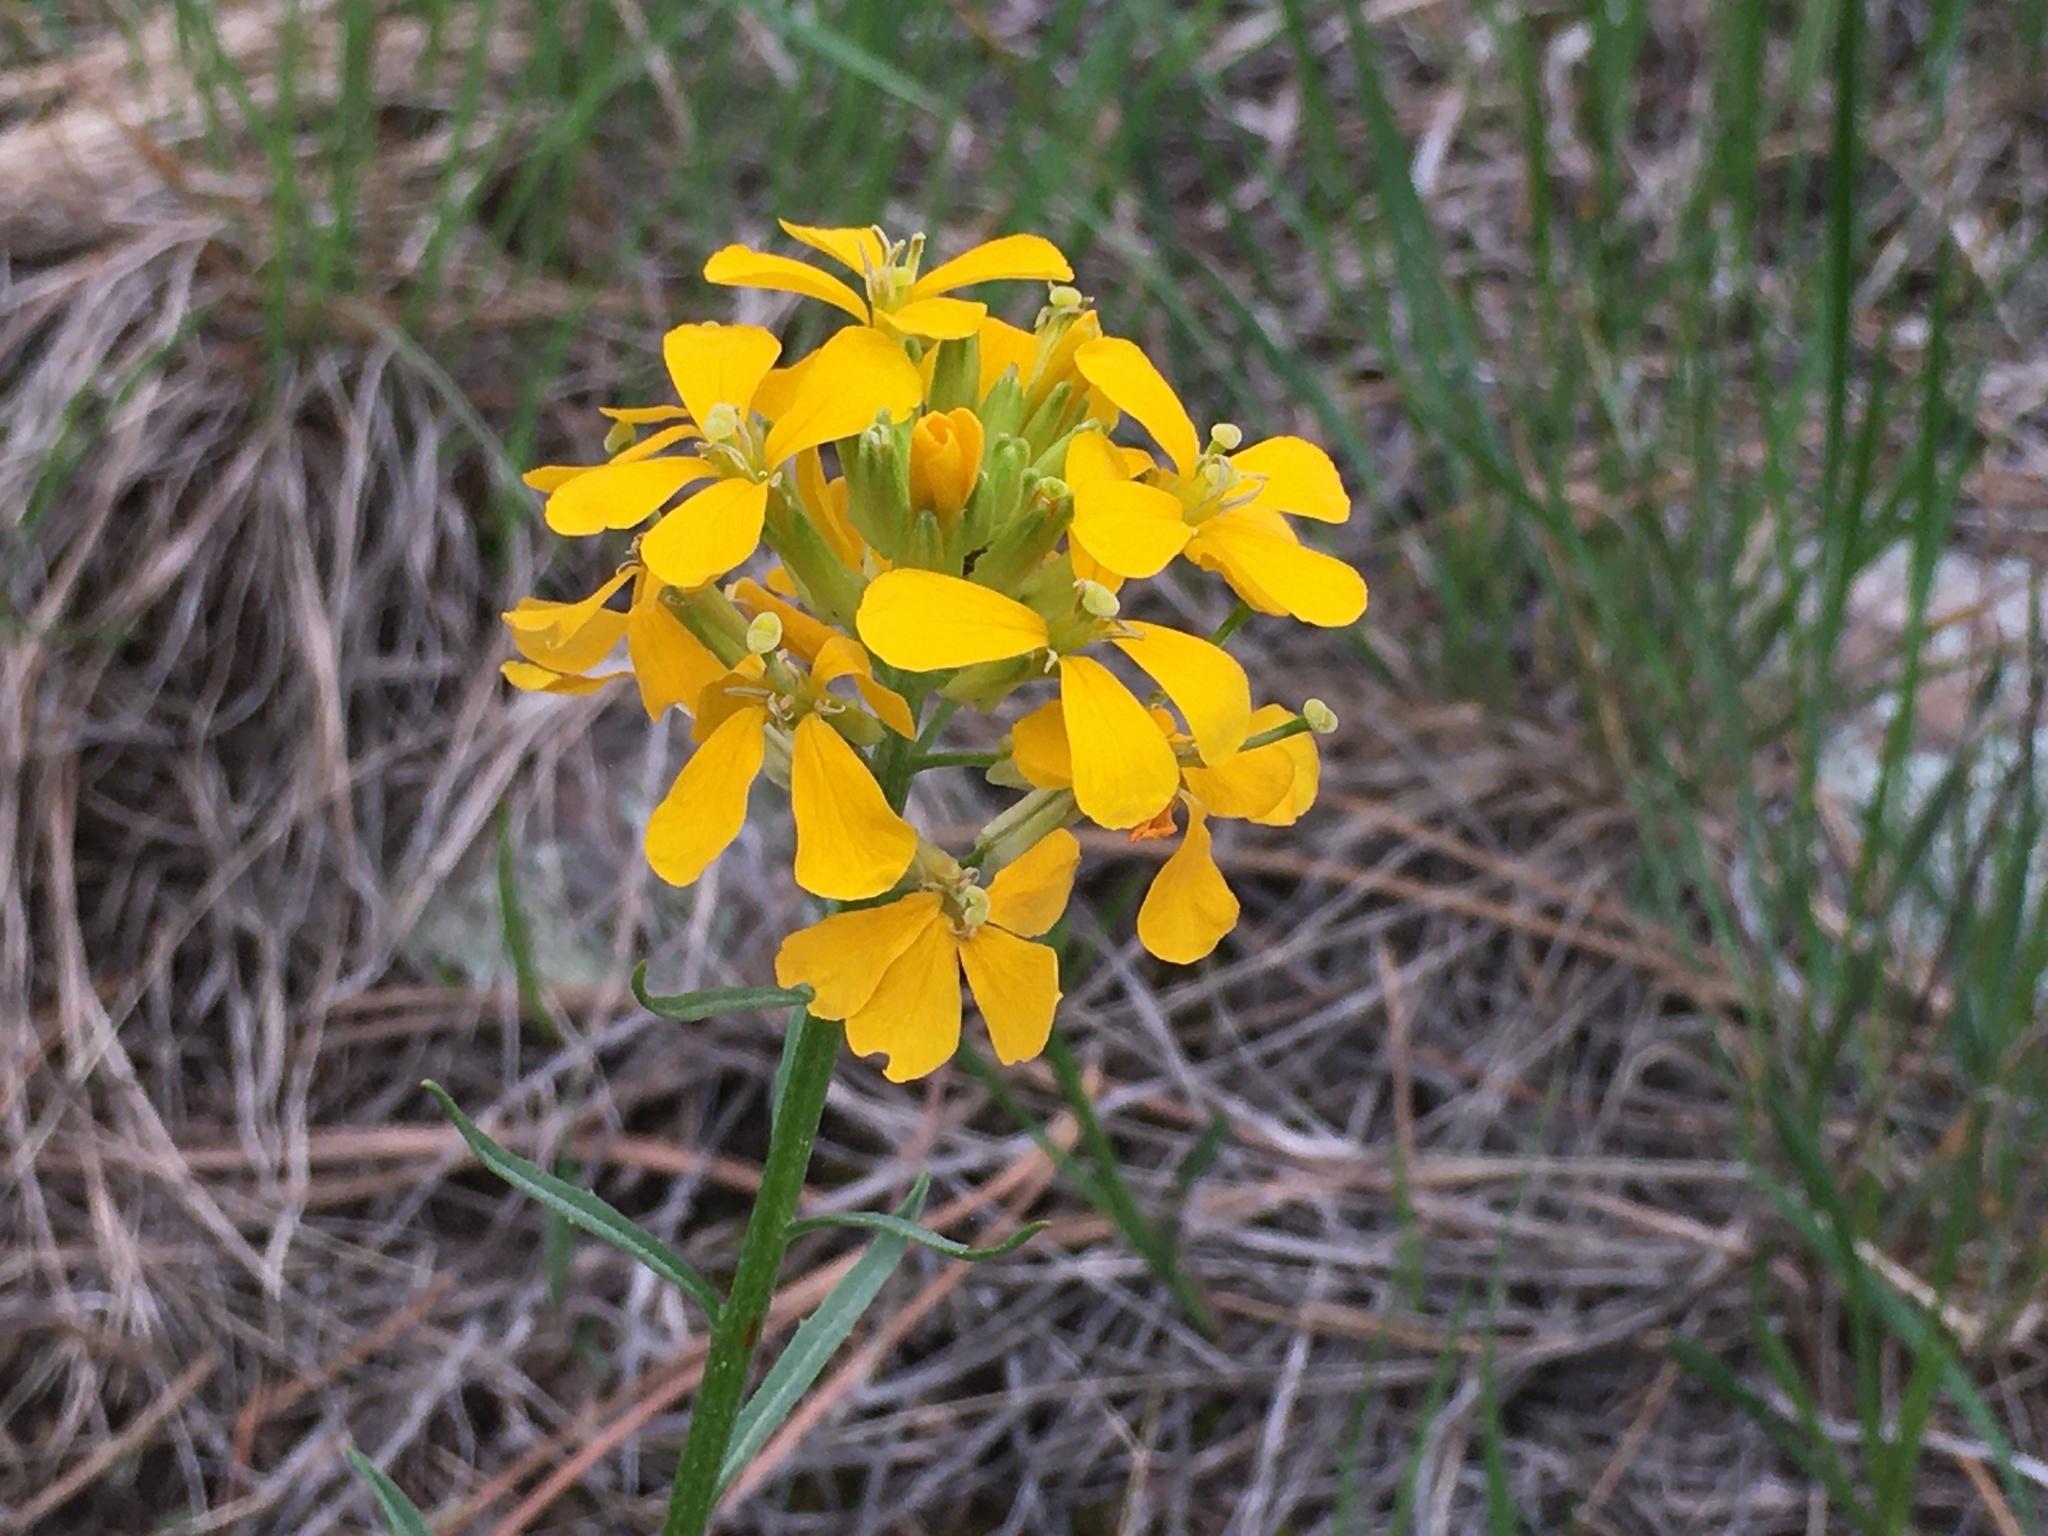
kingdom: Plantae
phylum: Tracheophyta
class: Magnoliopsida
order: Brassicales
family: Brassicaceae
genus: Erysimum
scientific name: Erysimum capitatum
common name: Western wallflower
